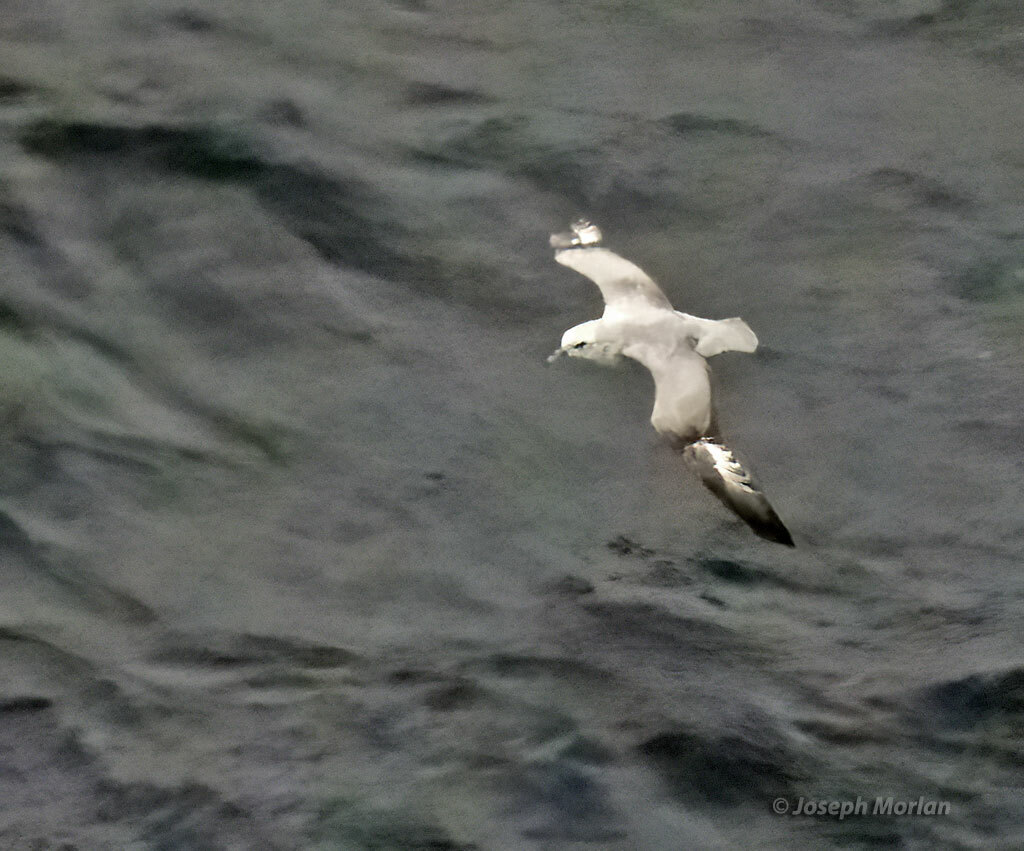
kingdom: Animalia
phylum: Chordata
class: Aves
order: Procellariiformes
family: Procellariidae
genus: Fulmarus
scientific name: Fulmarus glacialoides
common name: Southern fulmar
